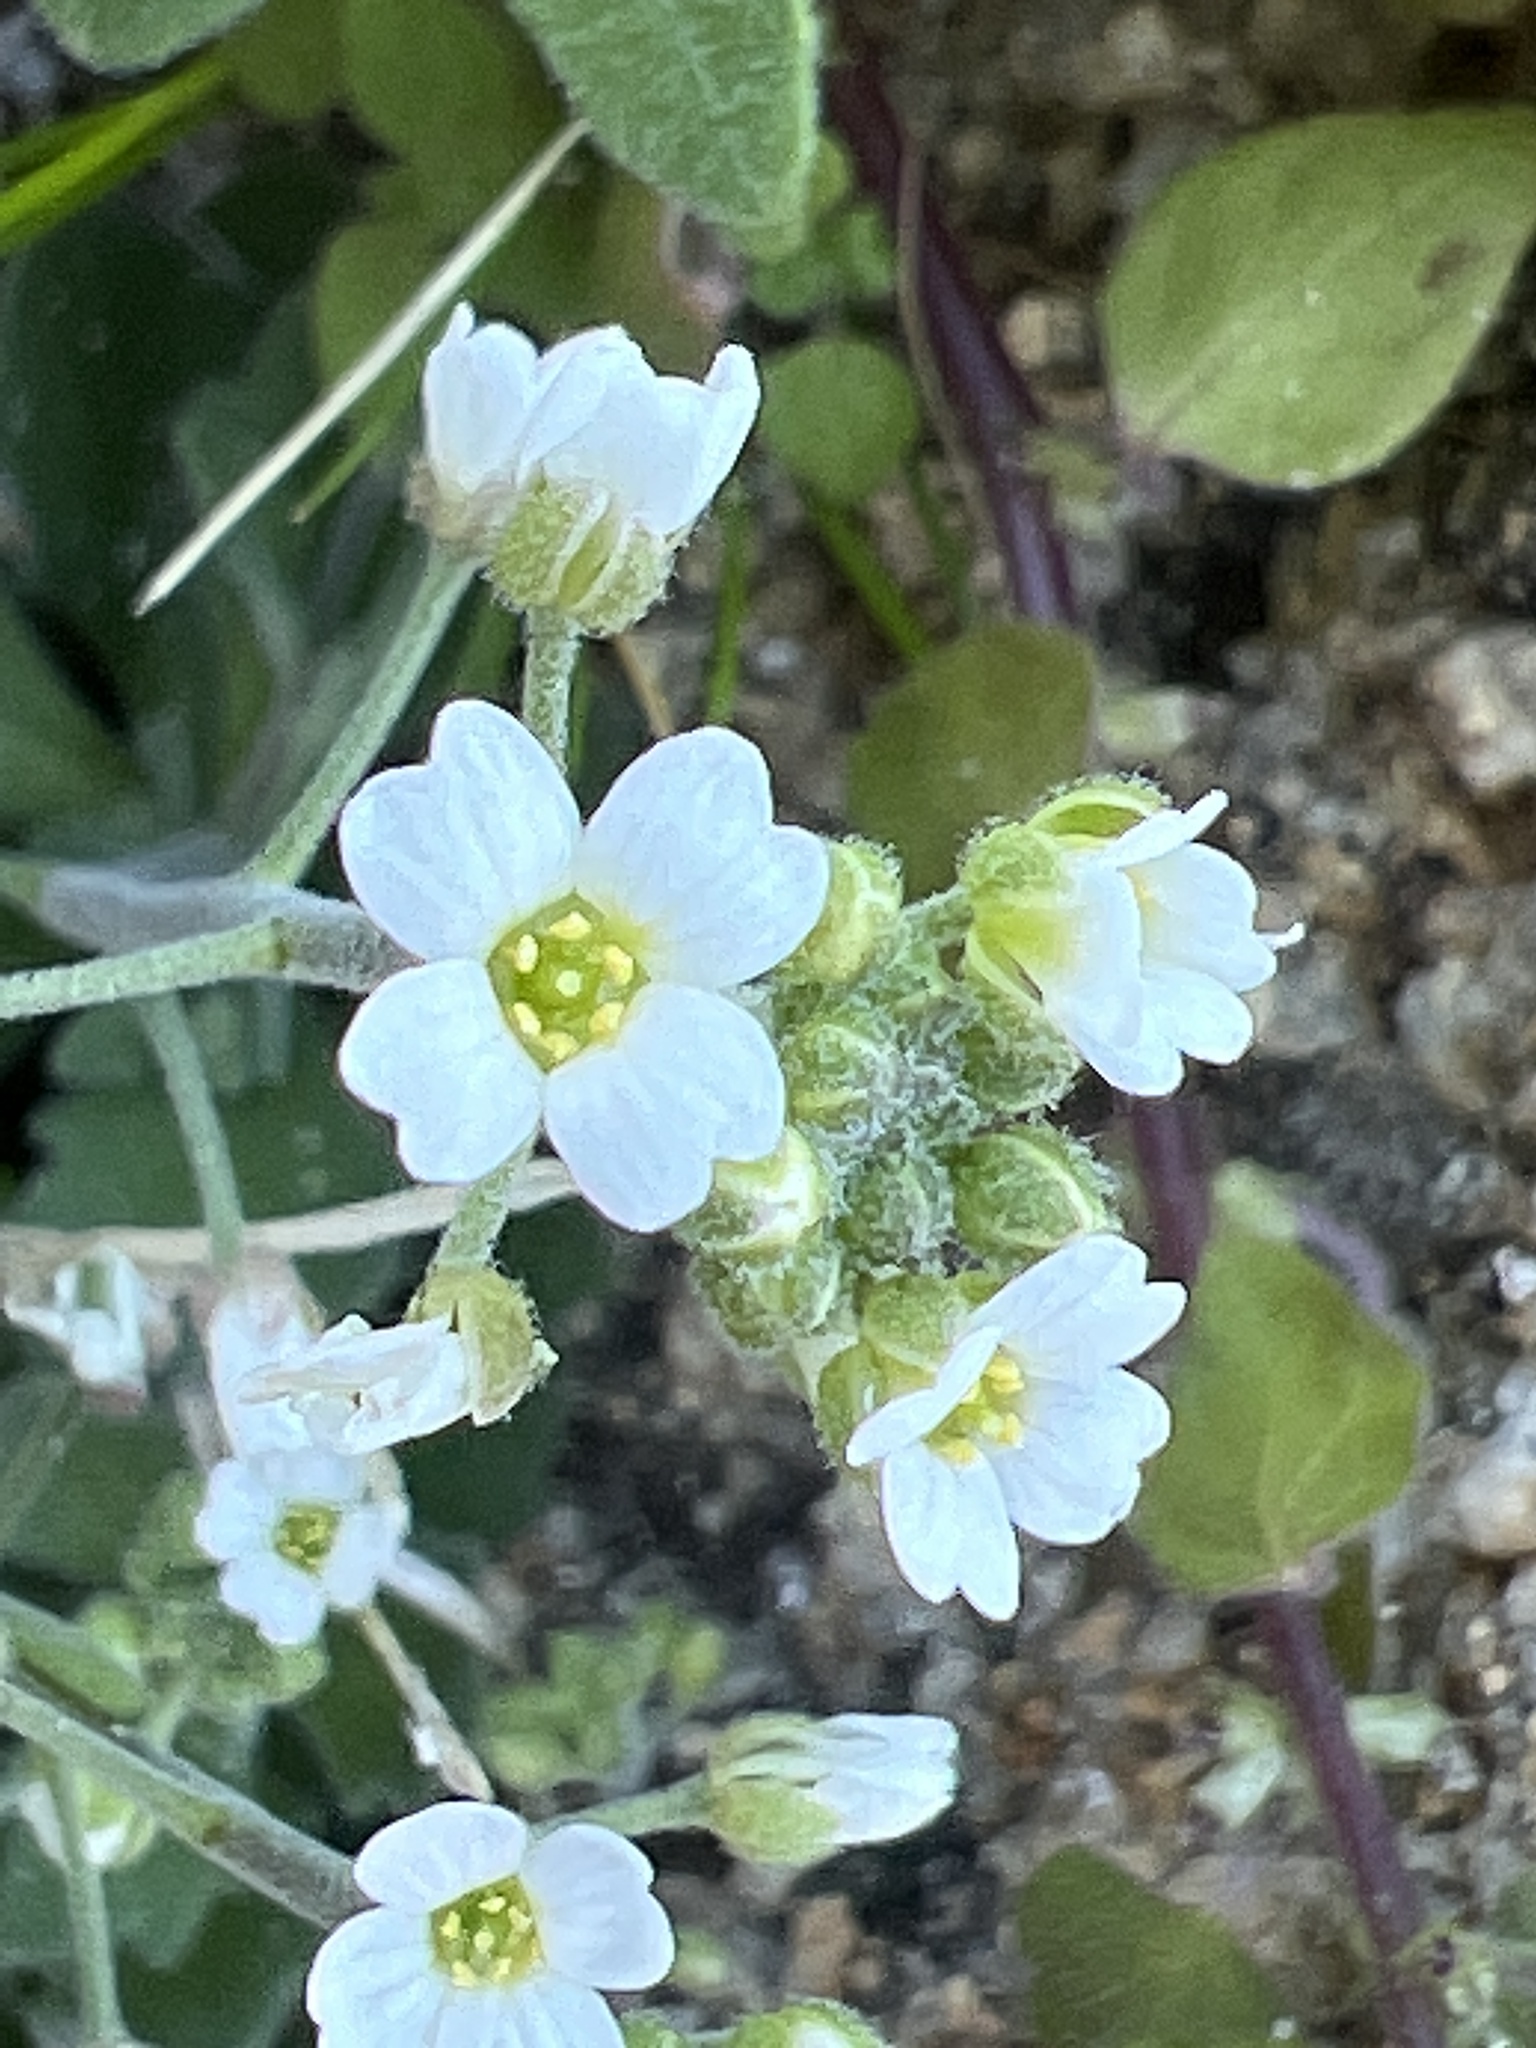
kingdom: Plantae
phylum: Tracheophyta
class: Magnoliopsida
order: Brassicales
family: Brassicaceae
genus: Tomostima
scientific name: Tomostima cuneifolia
